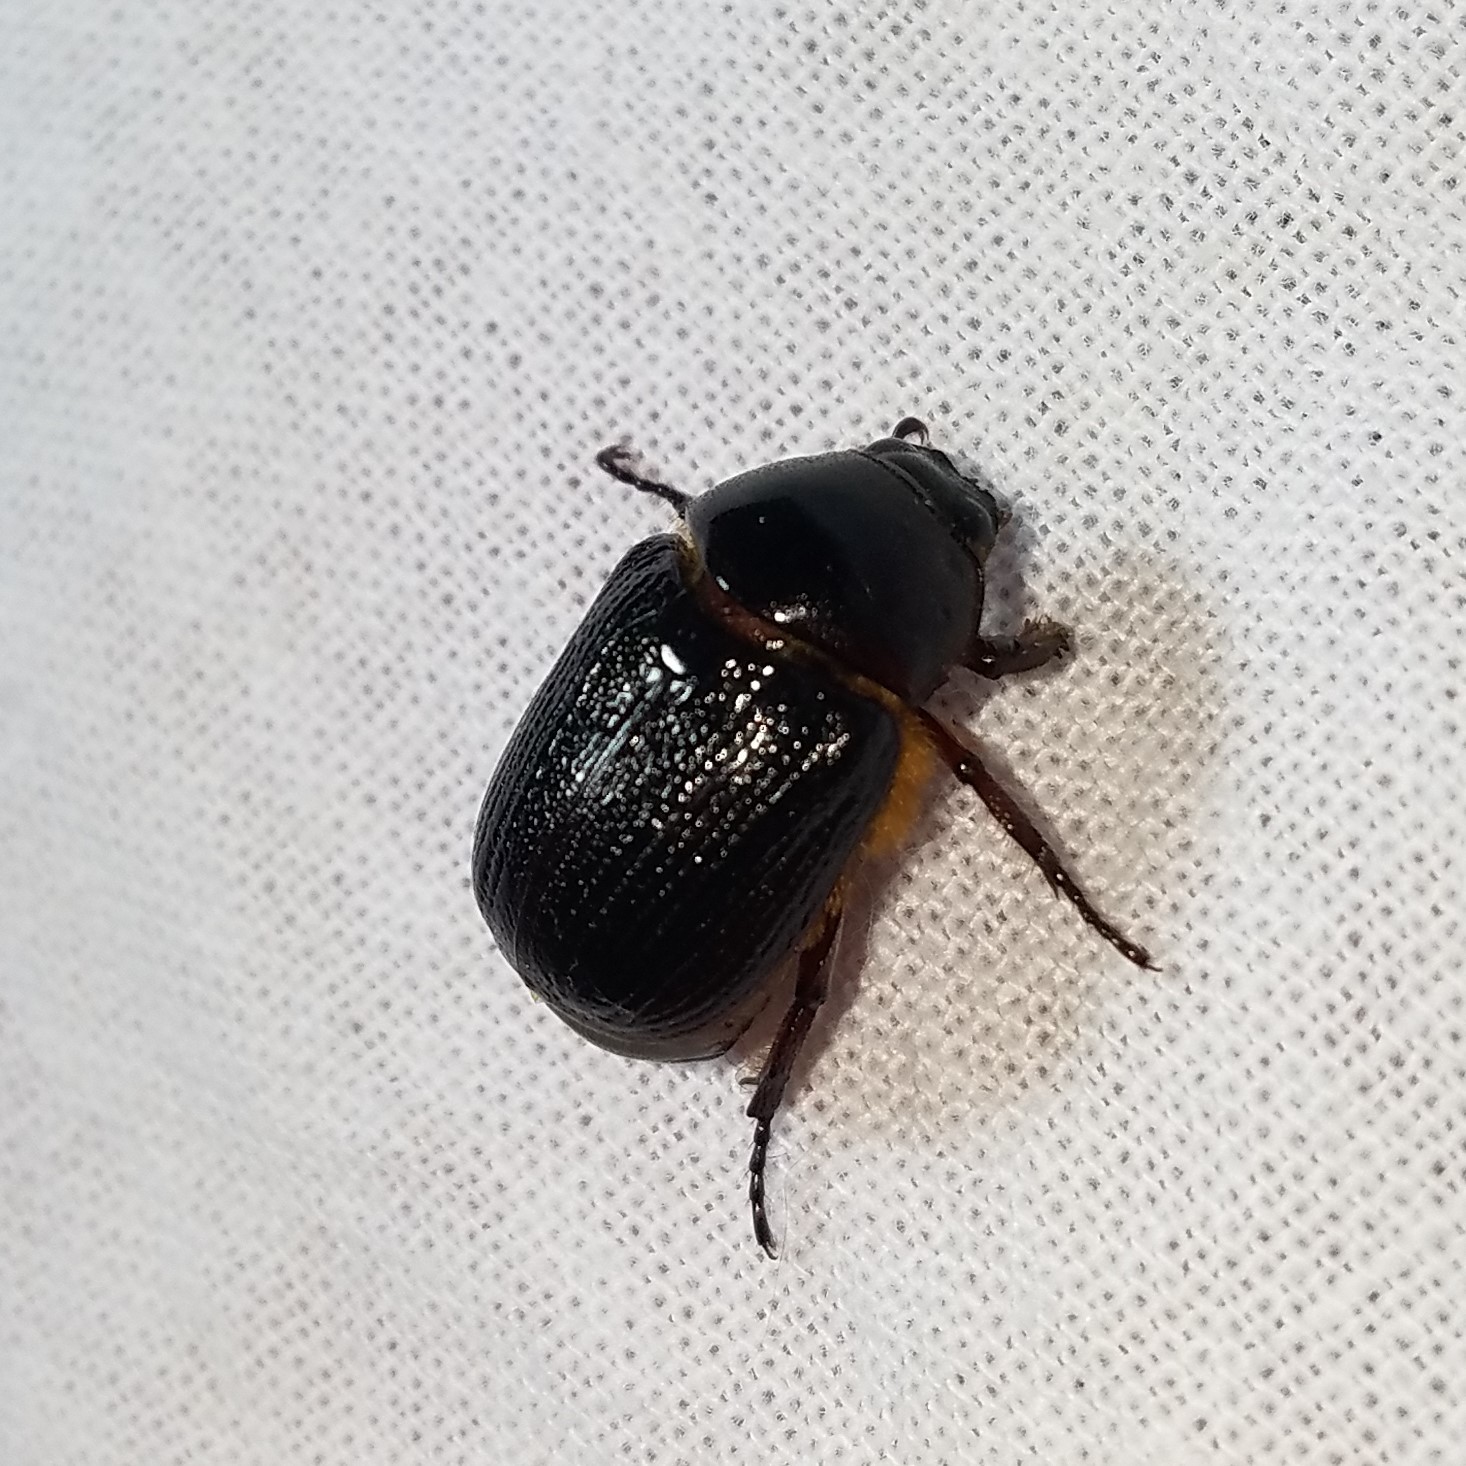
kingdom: Animalia
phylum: Arthropoda
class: Insecta
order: Coleoptera
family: Scarabaeidae
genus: Parastasia
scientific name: Parastasia brevipes
